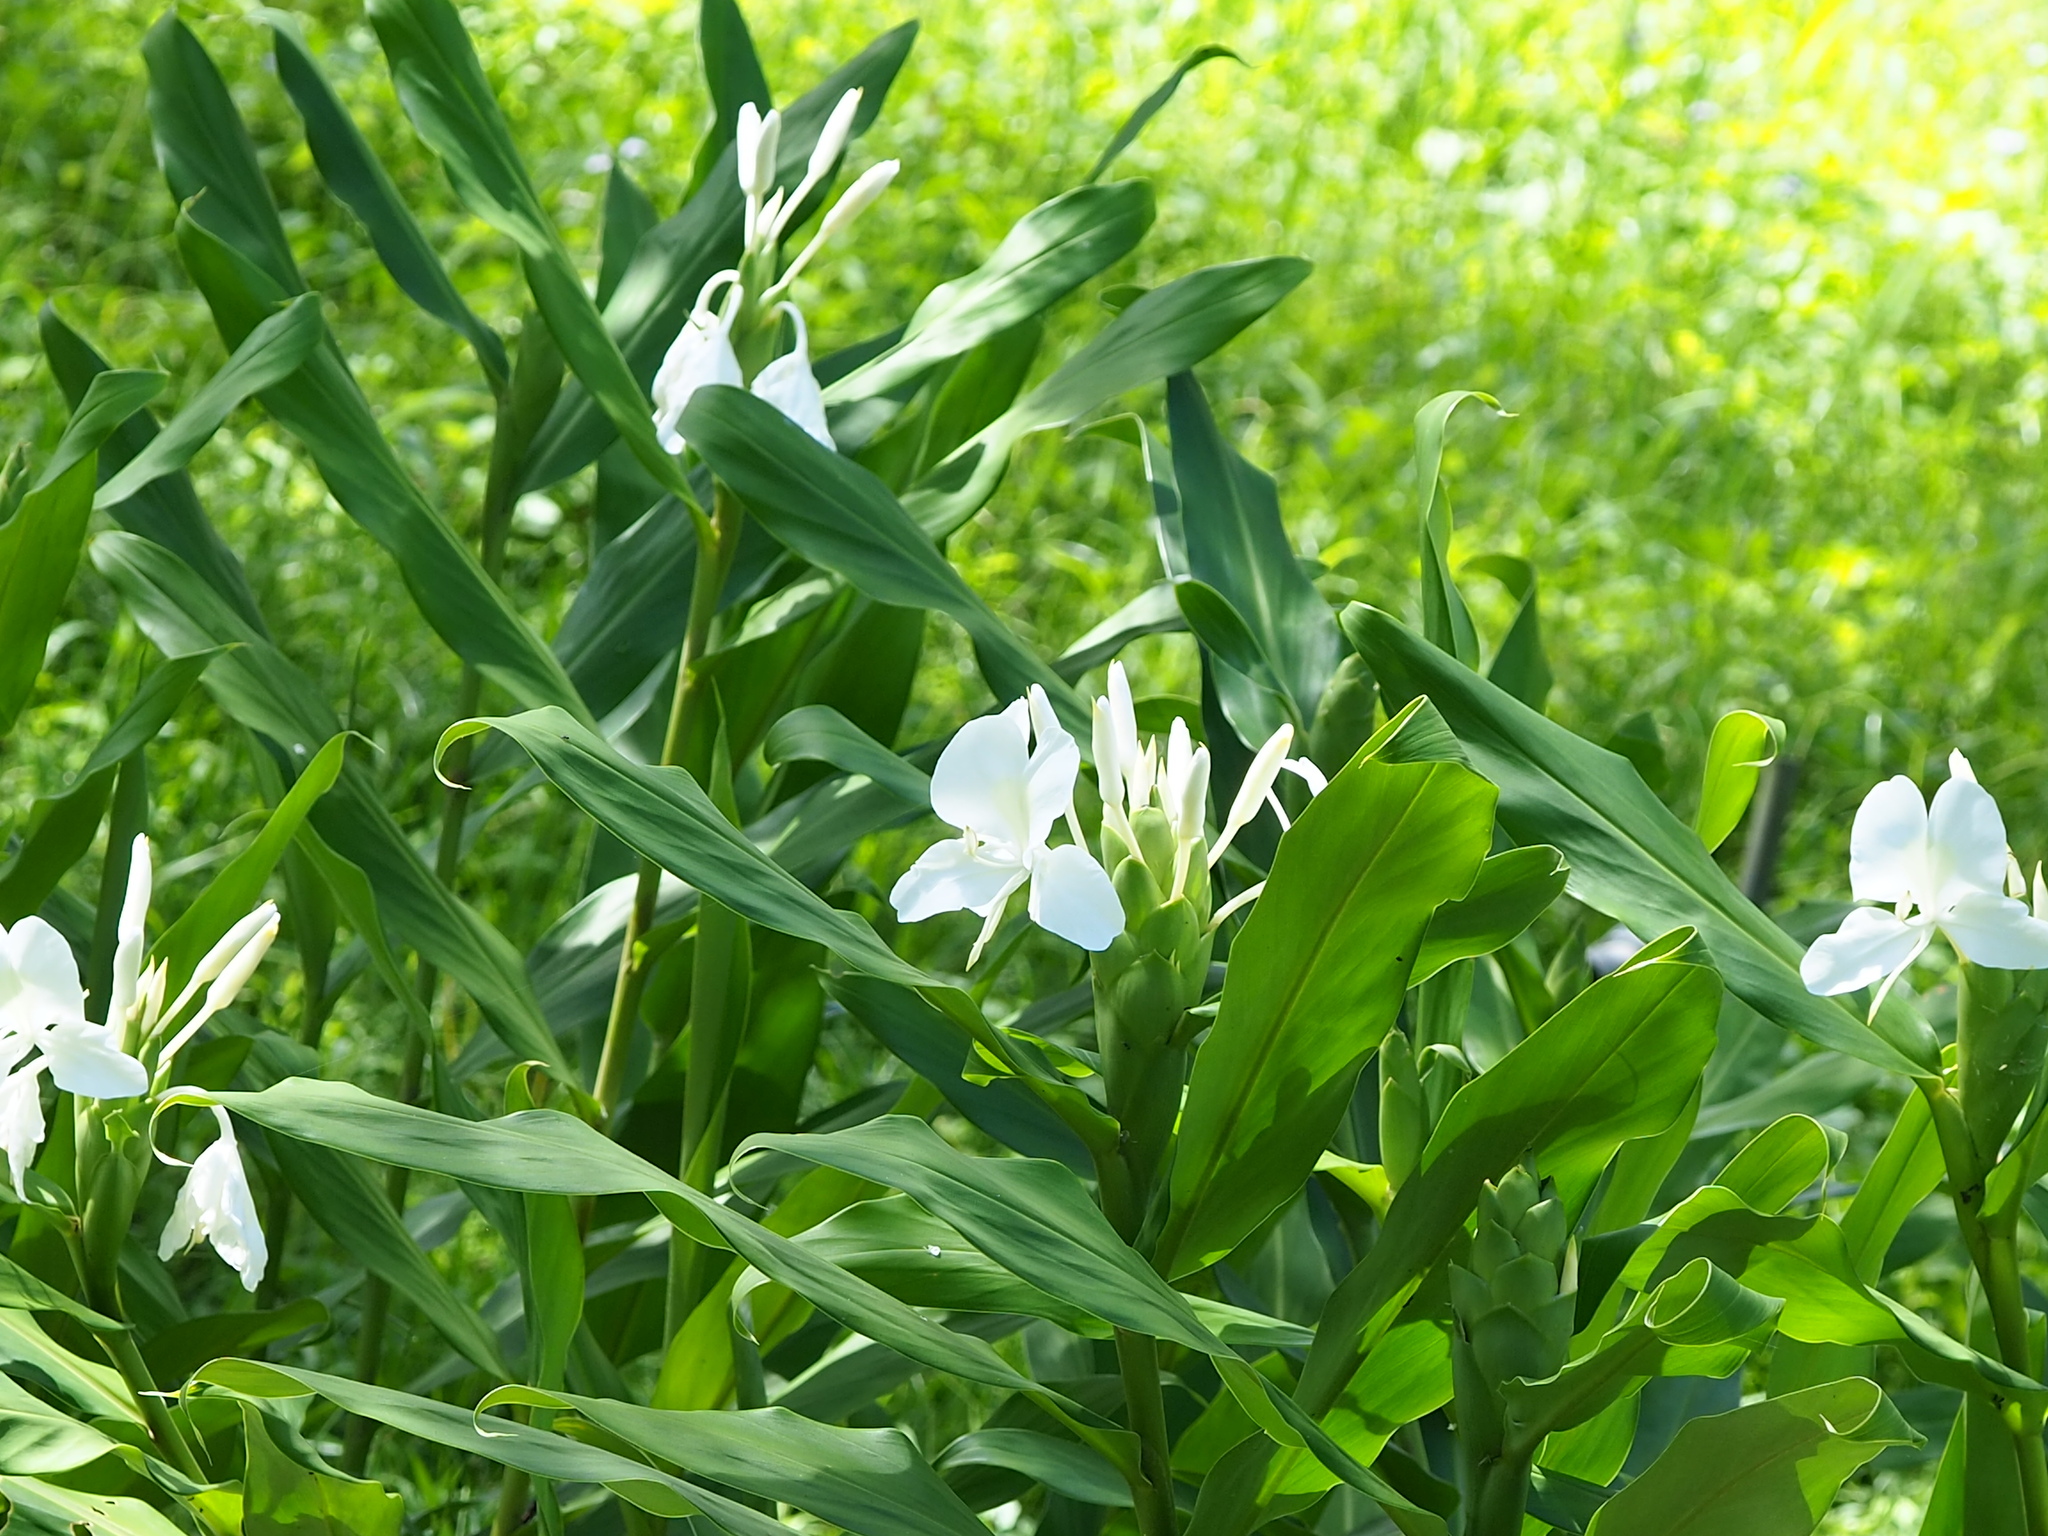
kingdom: Plantae
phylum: Tracheophyta
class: Liliopsida
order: Zingiberales
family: Zingiberaceae
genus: Hedychium
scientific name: Hedychium coronarium
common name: White garland-lily
